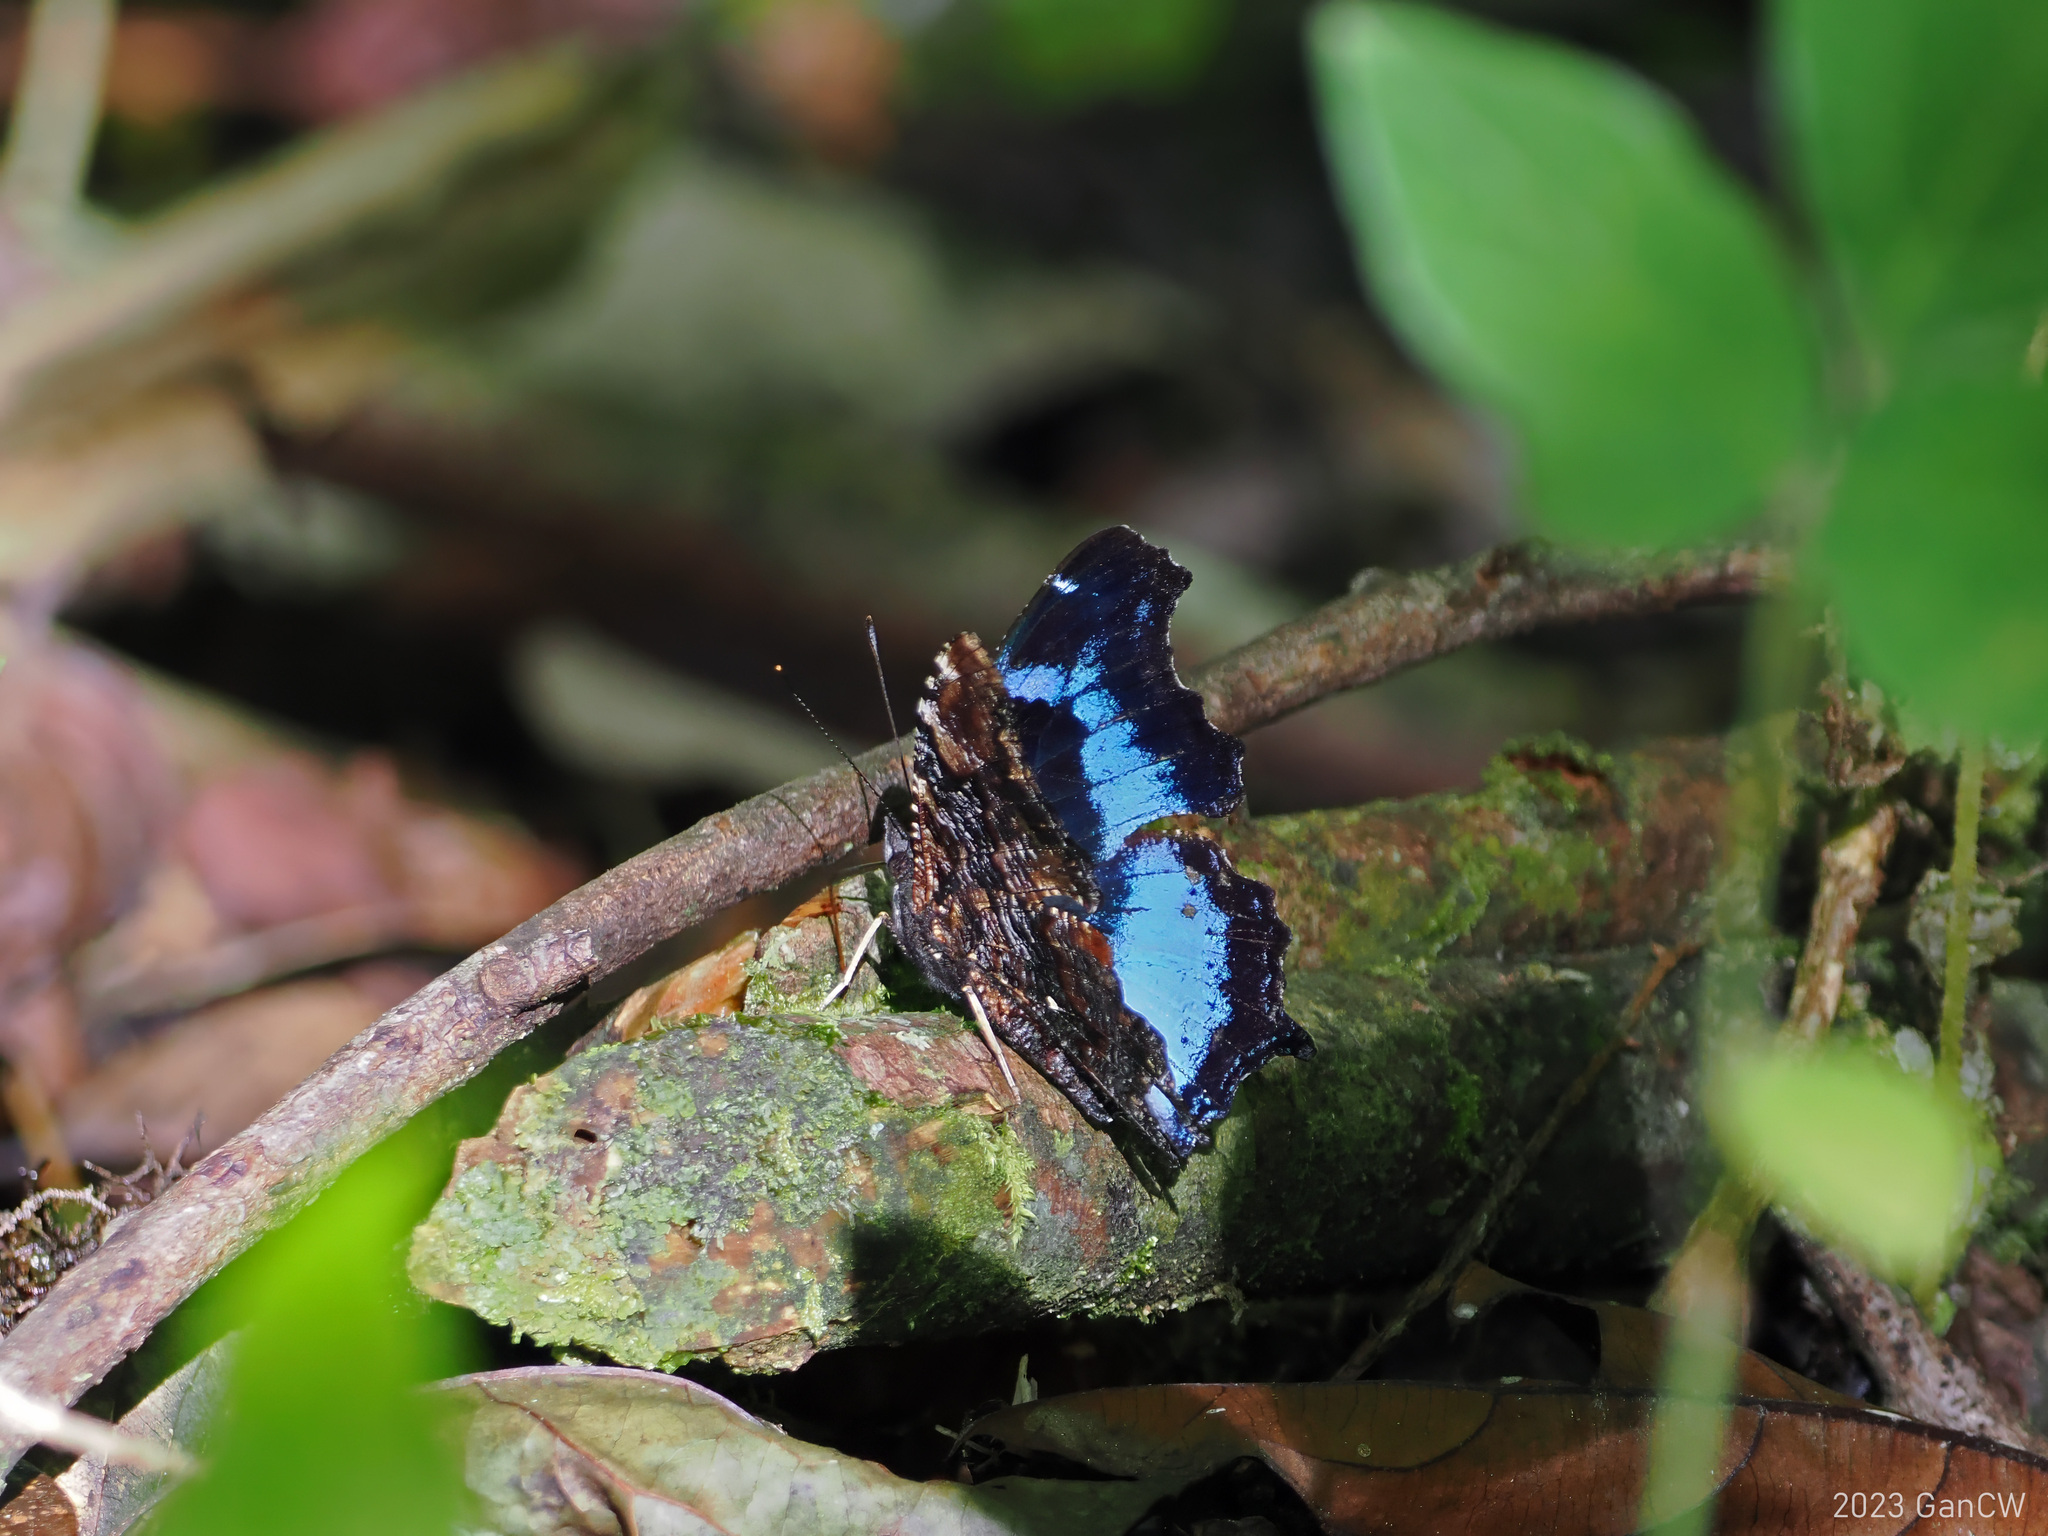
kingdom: Animalia
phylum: Arthropoda
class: Insecta
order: Lepidoptera
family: Nymphalidae
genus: Vanessa
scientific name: Vanessa Kaniska canace
